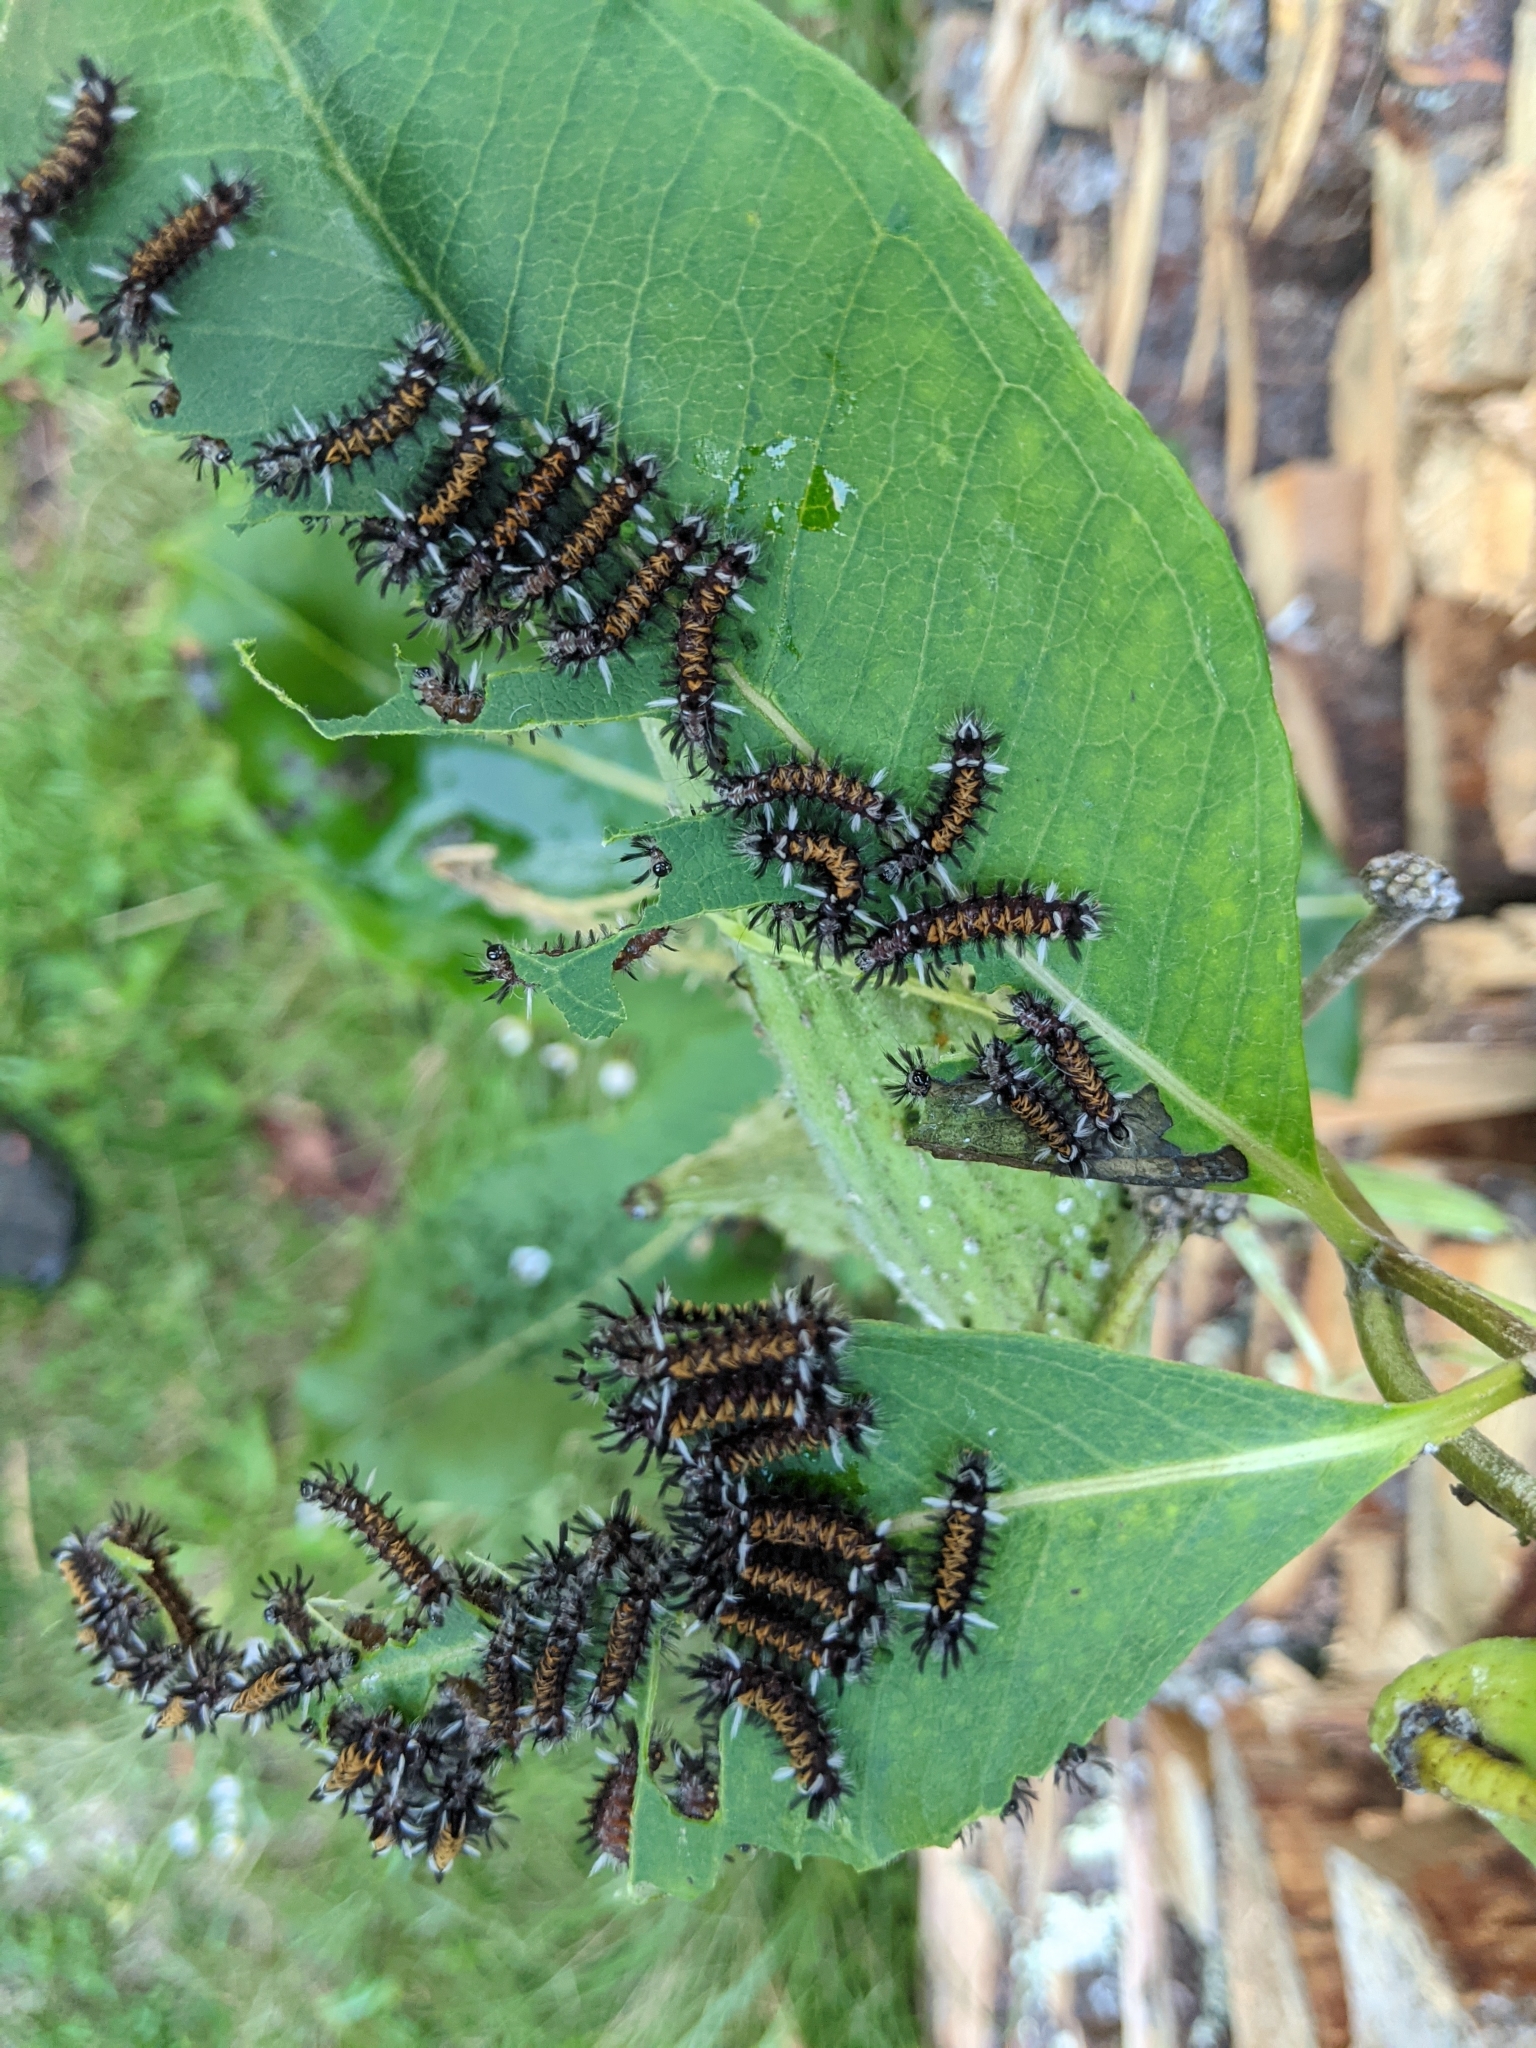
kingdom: Animalia
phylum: Arthropoda
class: Insecta
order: Lepidoptera
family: Erebidae
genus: Euchaetes
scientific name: Euchaetes egle
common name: Milkweed tussock moth
